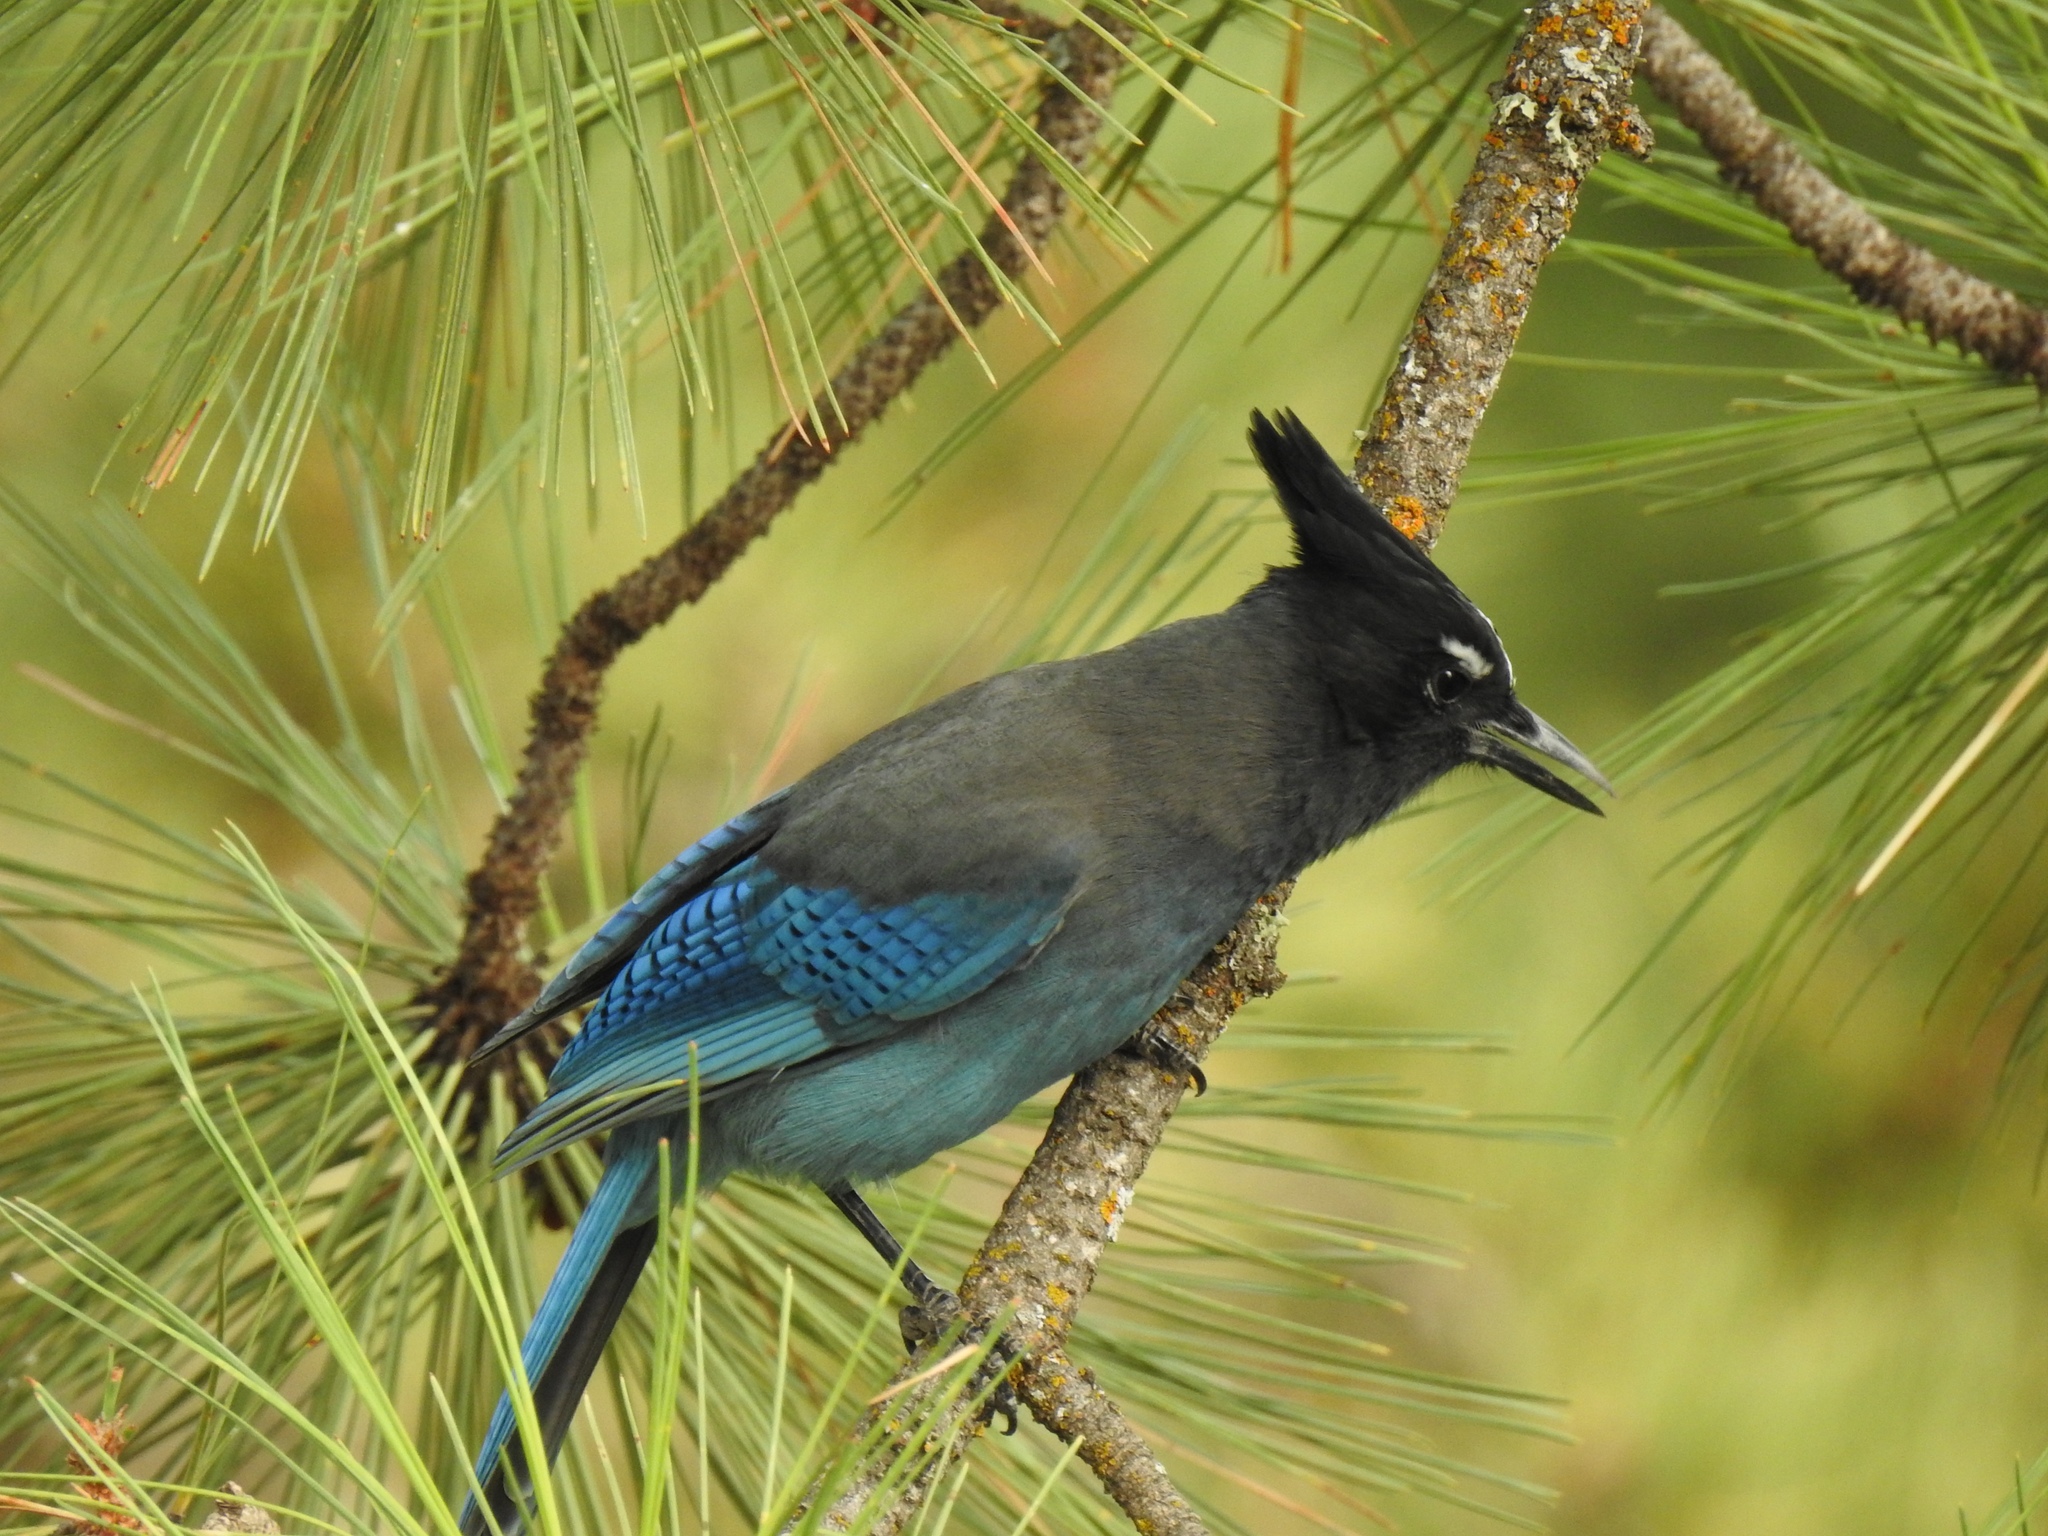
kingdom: Animalia
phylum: Chordata
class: Aves
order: Passeriformes
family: Corvidae
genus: Cyanocitta
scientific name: Cyanocitta stelleri
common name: Steller's jay
